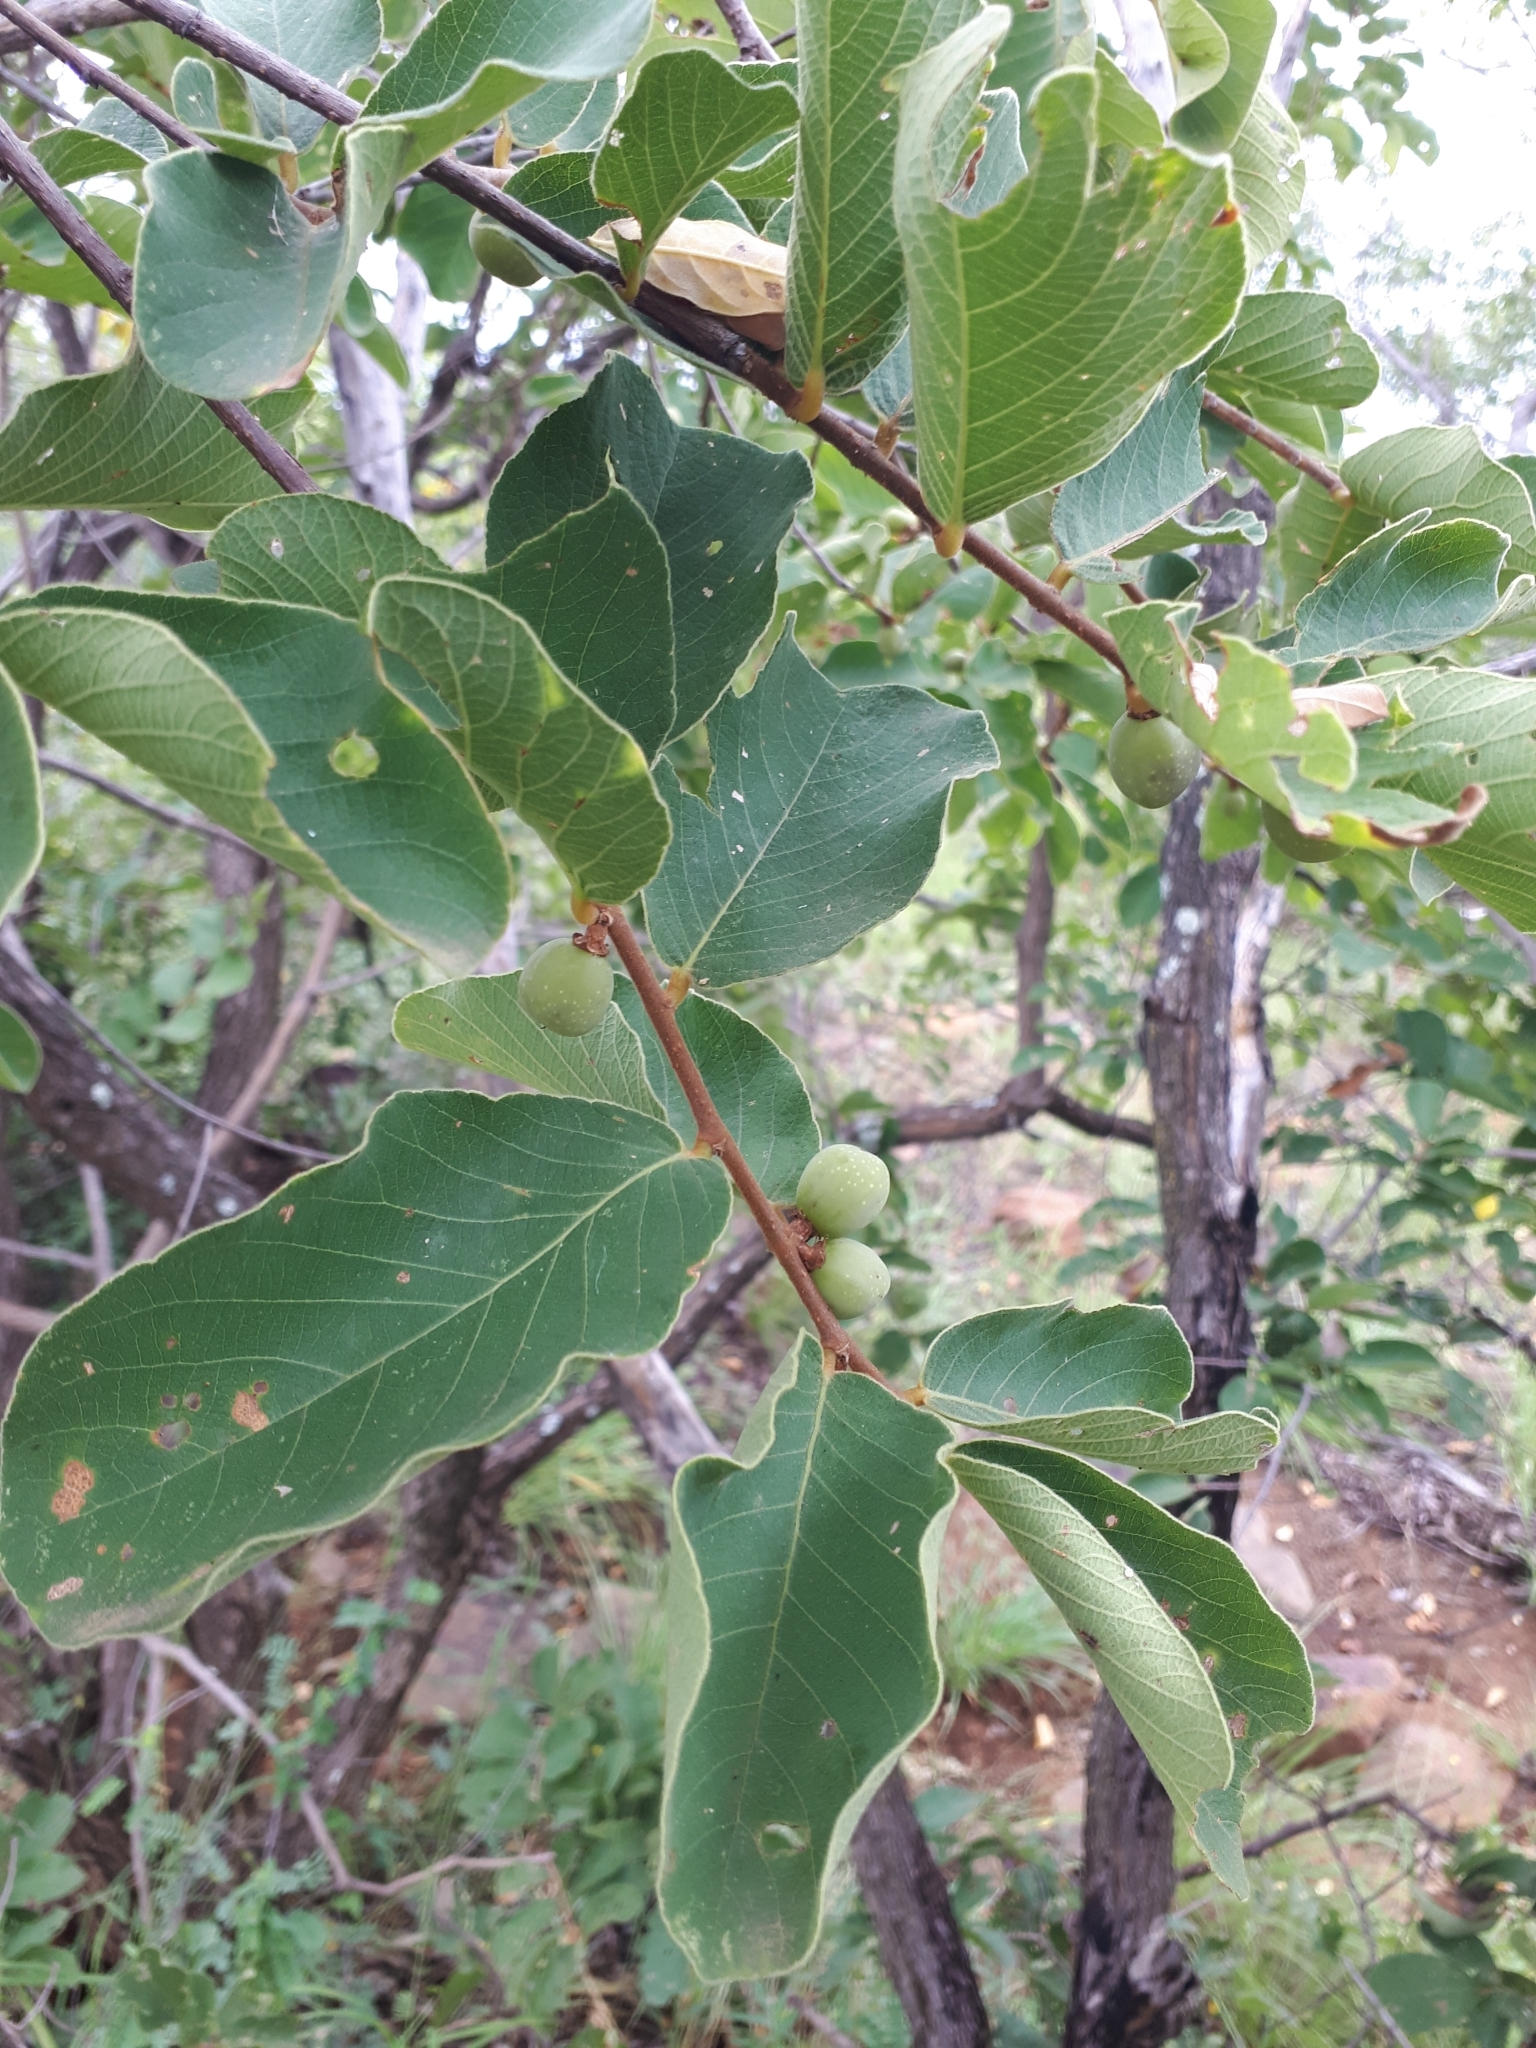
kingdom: Plantae
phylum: Tracheophyta
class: Magnoliopsida
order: Malpighiales
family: Phyllanthaceae
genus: Bridelia
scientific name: Bridelia mollis
